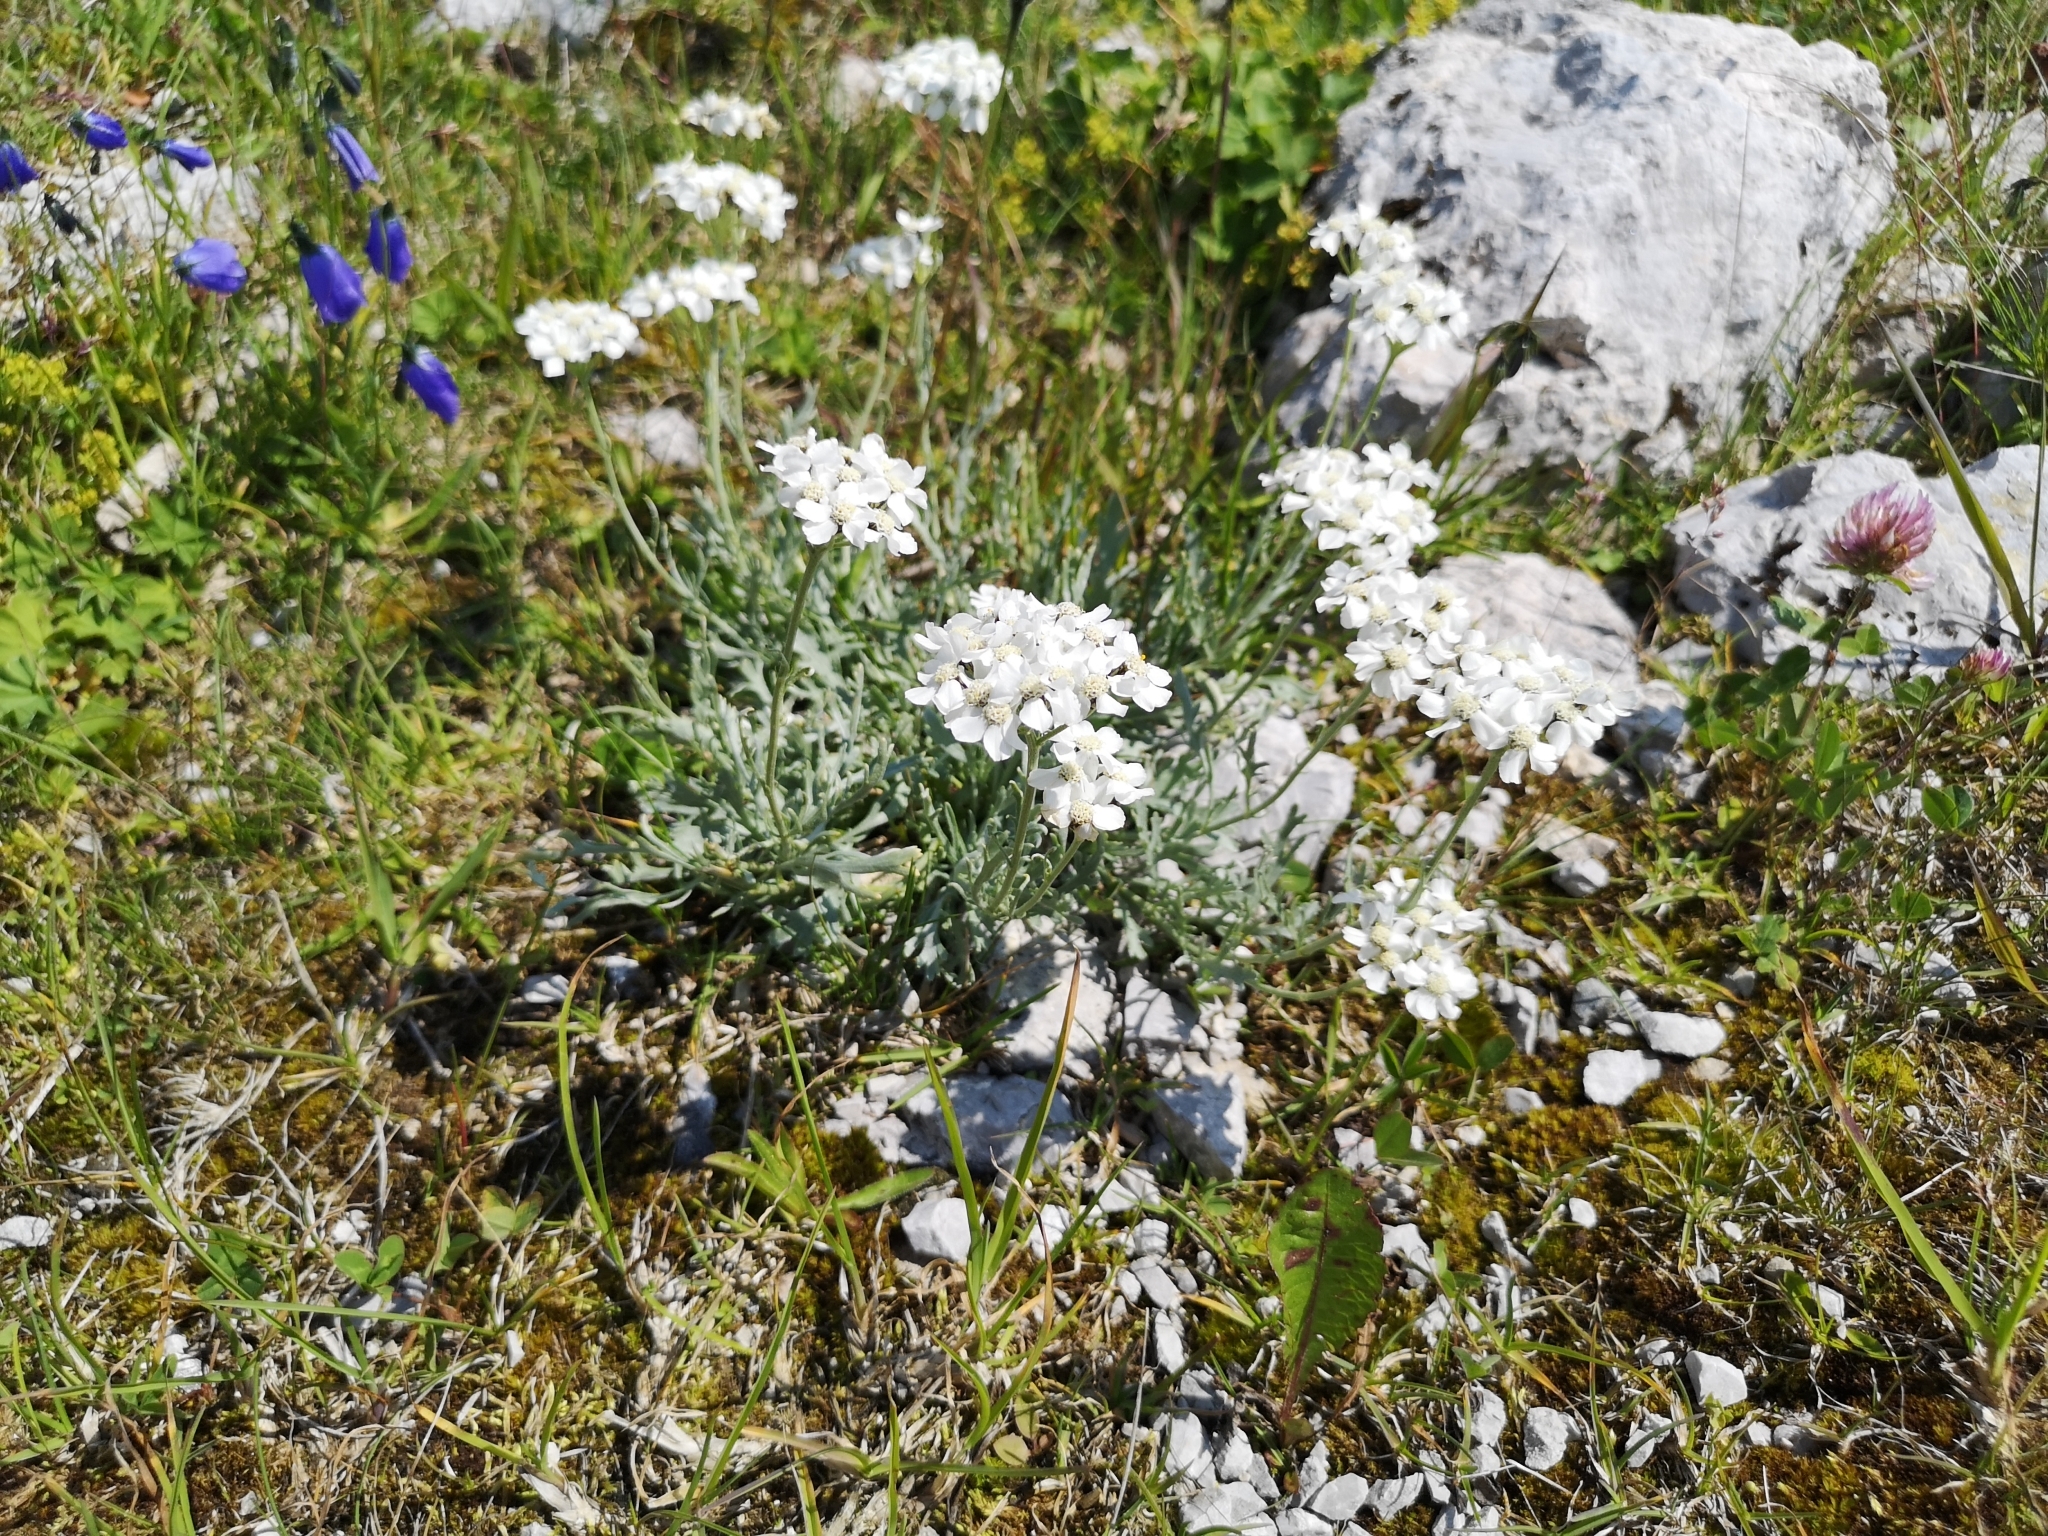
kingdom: Plantae
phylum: Tracheophyta
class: Magnoliopsida
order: Asterales
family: Asteraceae
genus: Achillea
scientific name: Achillea clavennae
